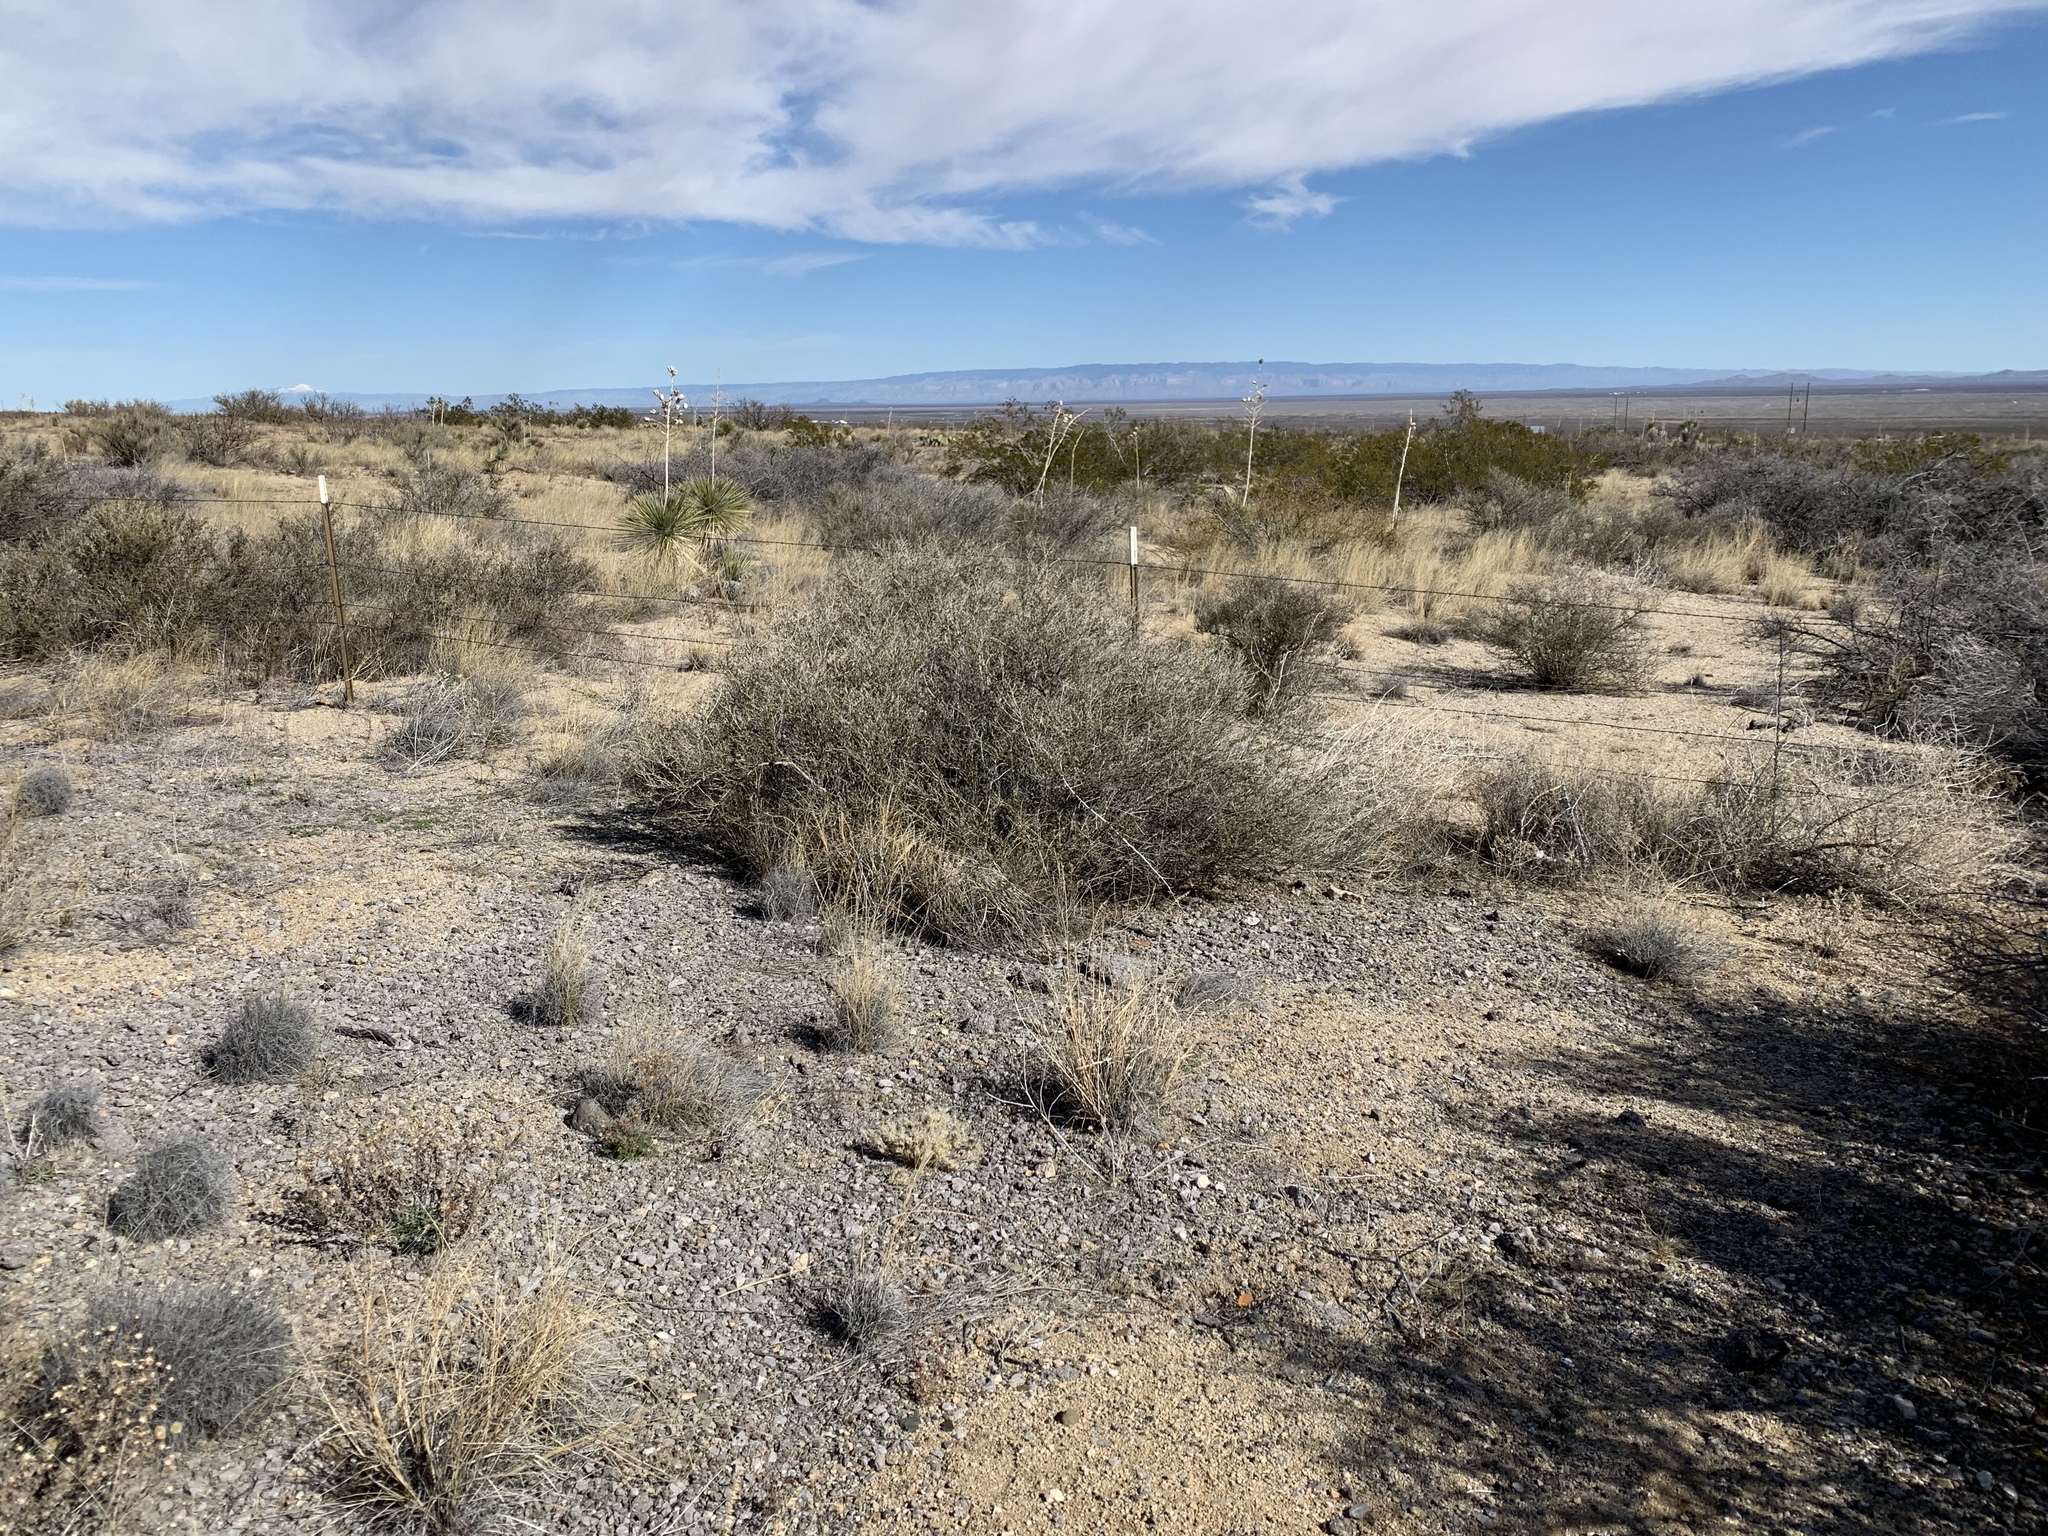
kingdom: Plantae
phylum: Tracheophyta
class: Magnoliopsida
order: Rosales
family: Rosaceae
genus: Fallugia
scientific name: Fallugia paradoxa
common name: Apache-plume
